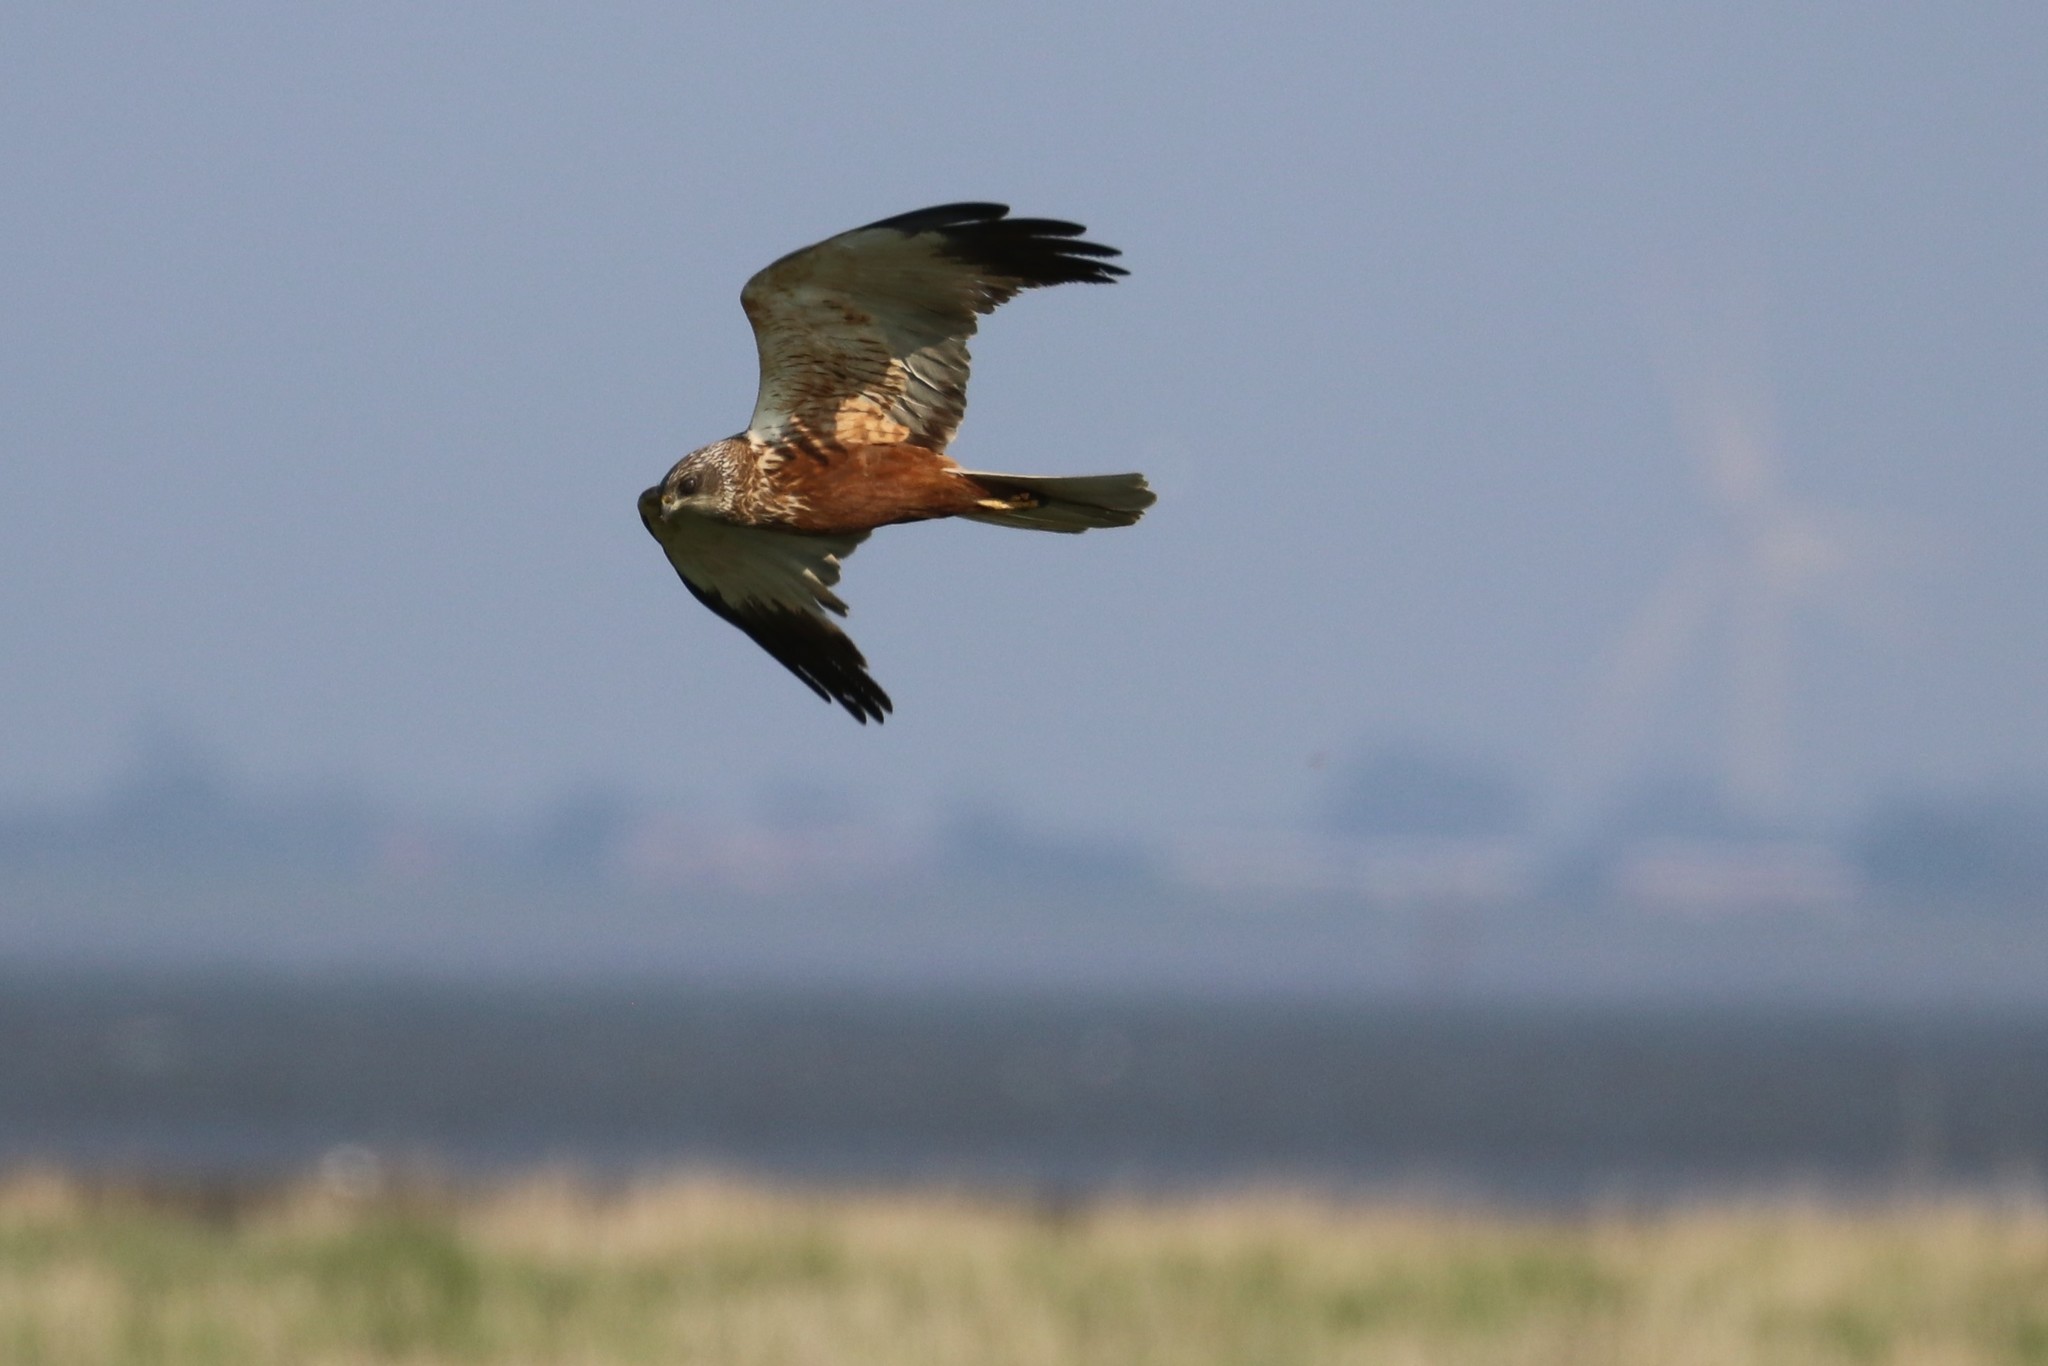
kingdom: Animalia
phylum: Chordata
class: Aves
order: Accipitriformes
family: Accipitridae
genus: Circus
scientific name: Circus aeruginosus
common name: Western marsh harrier
